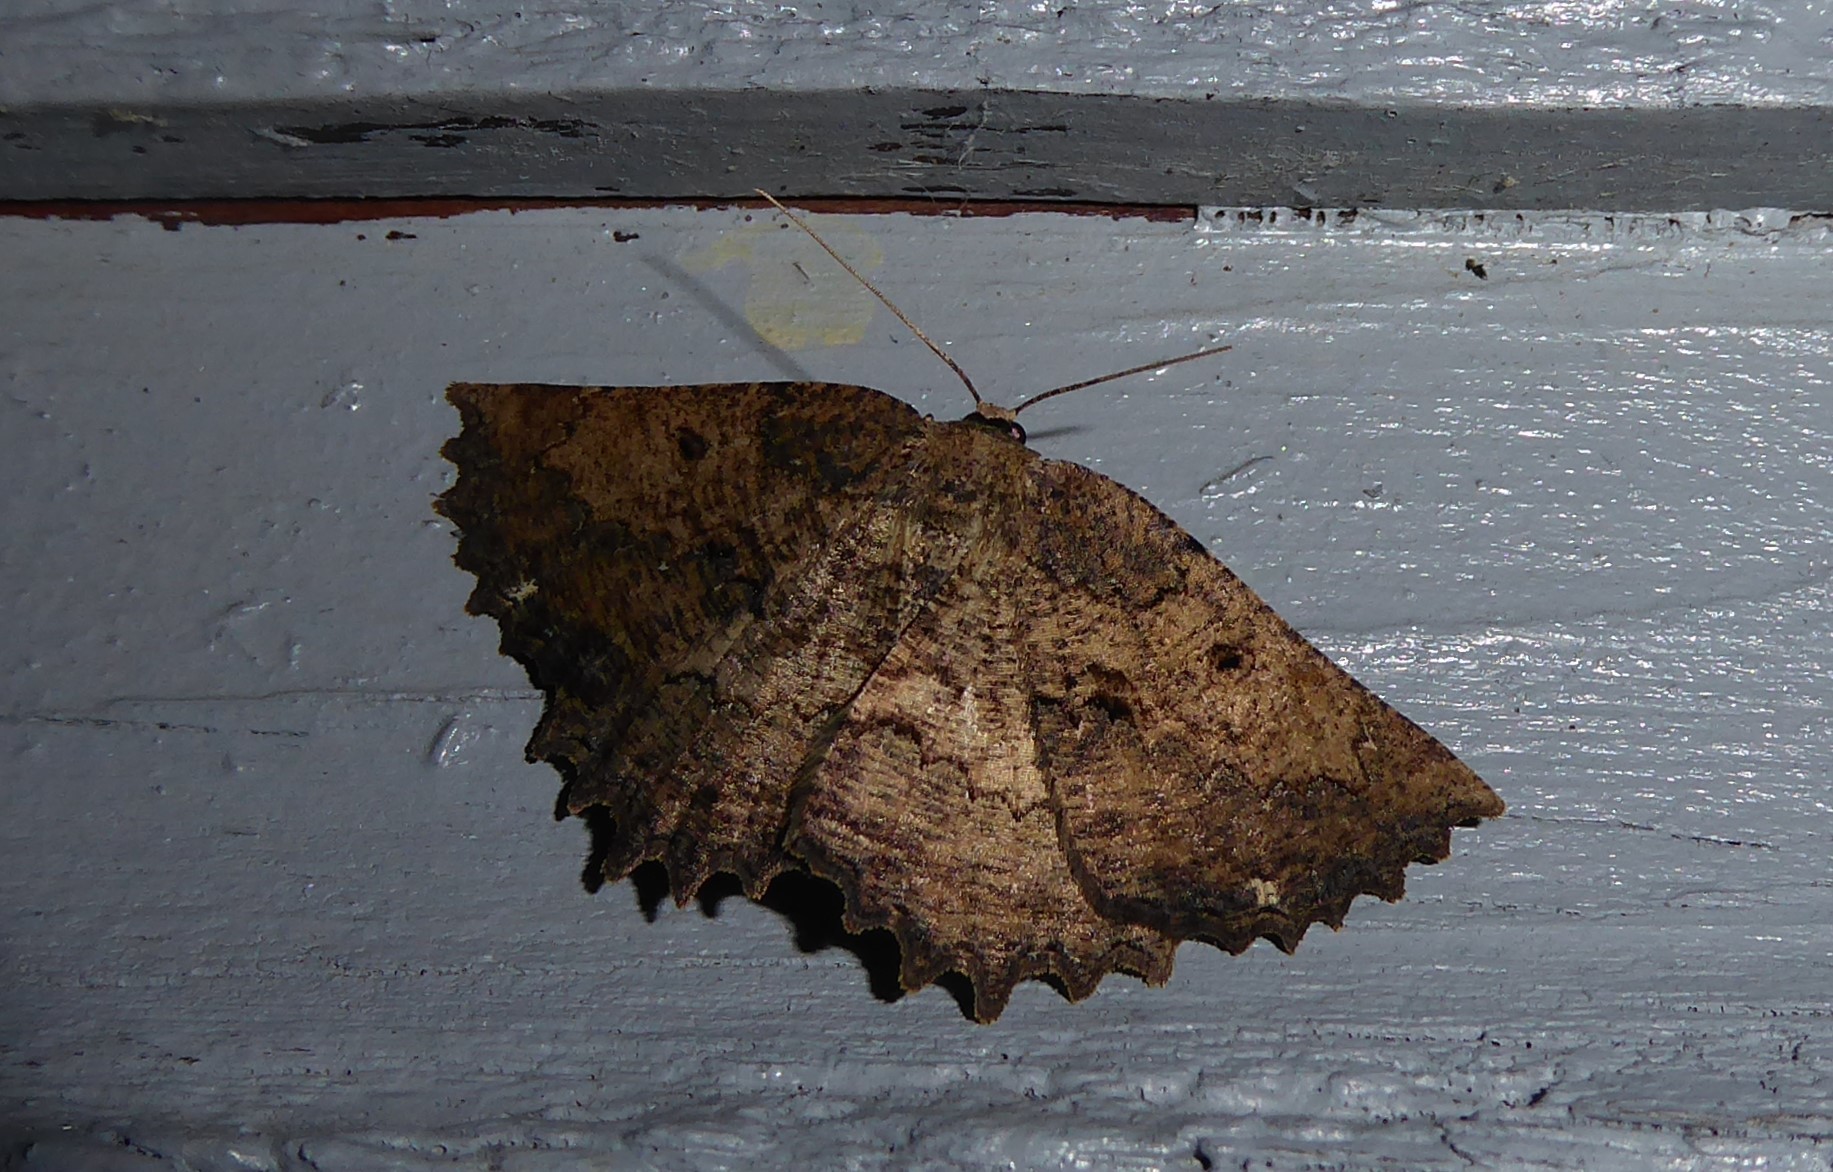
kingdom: Animalia
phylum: Arthropoda
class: Insecta
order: Lepidoptera
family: Geometridae
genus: Gellonia
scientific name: Gellonia pannularia
